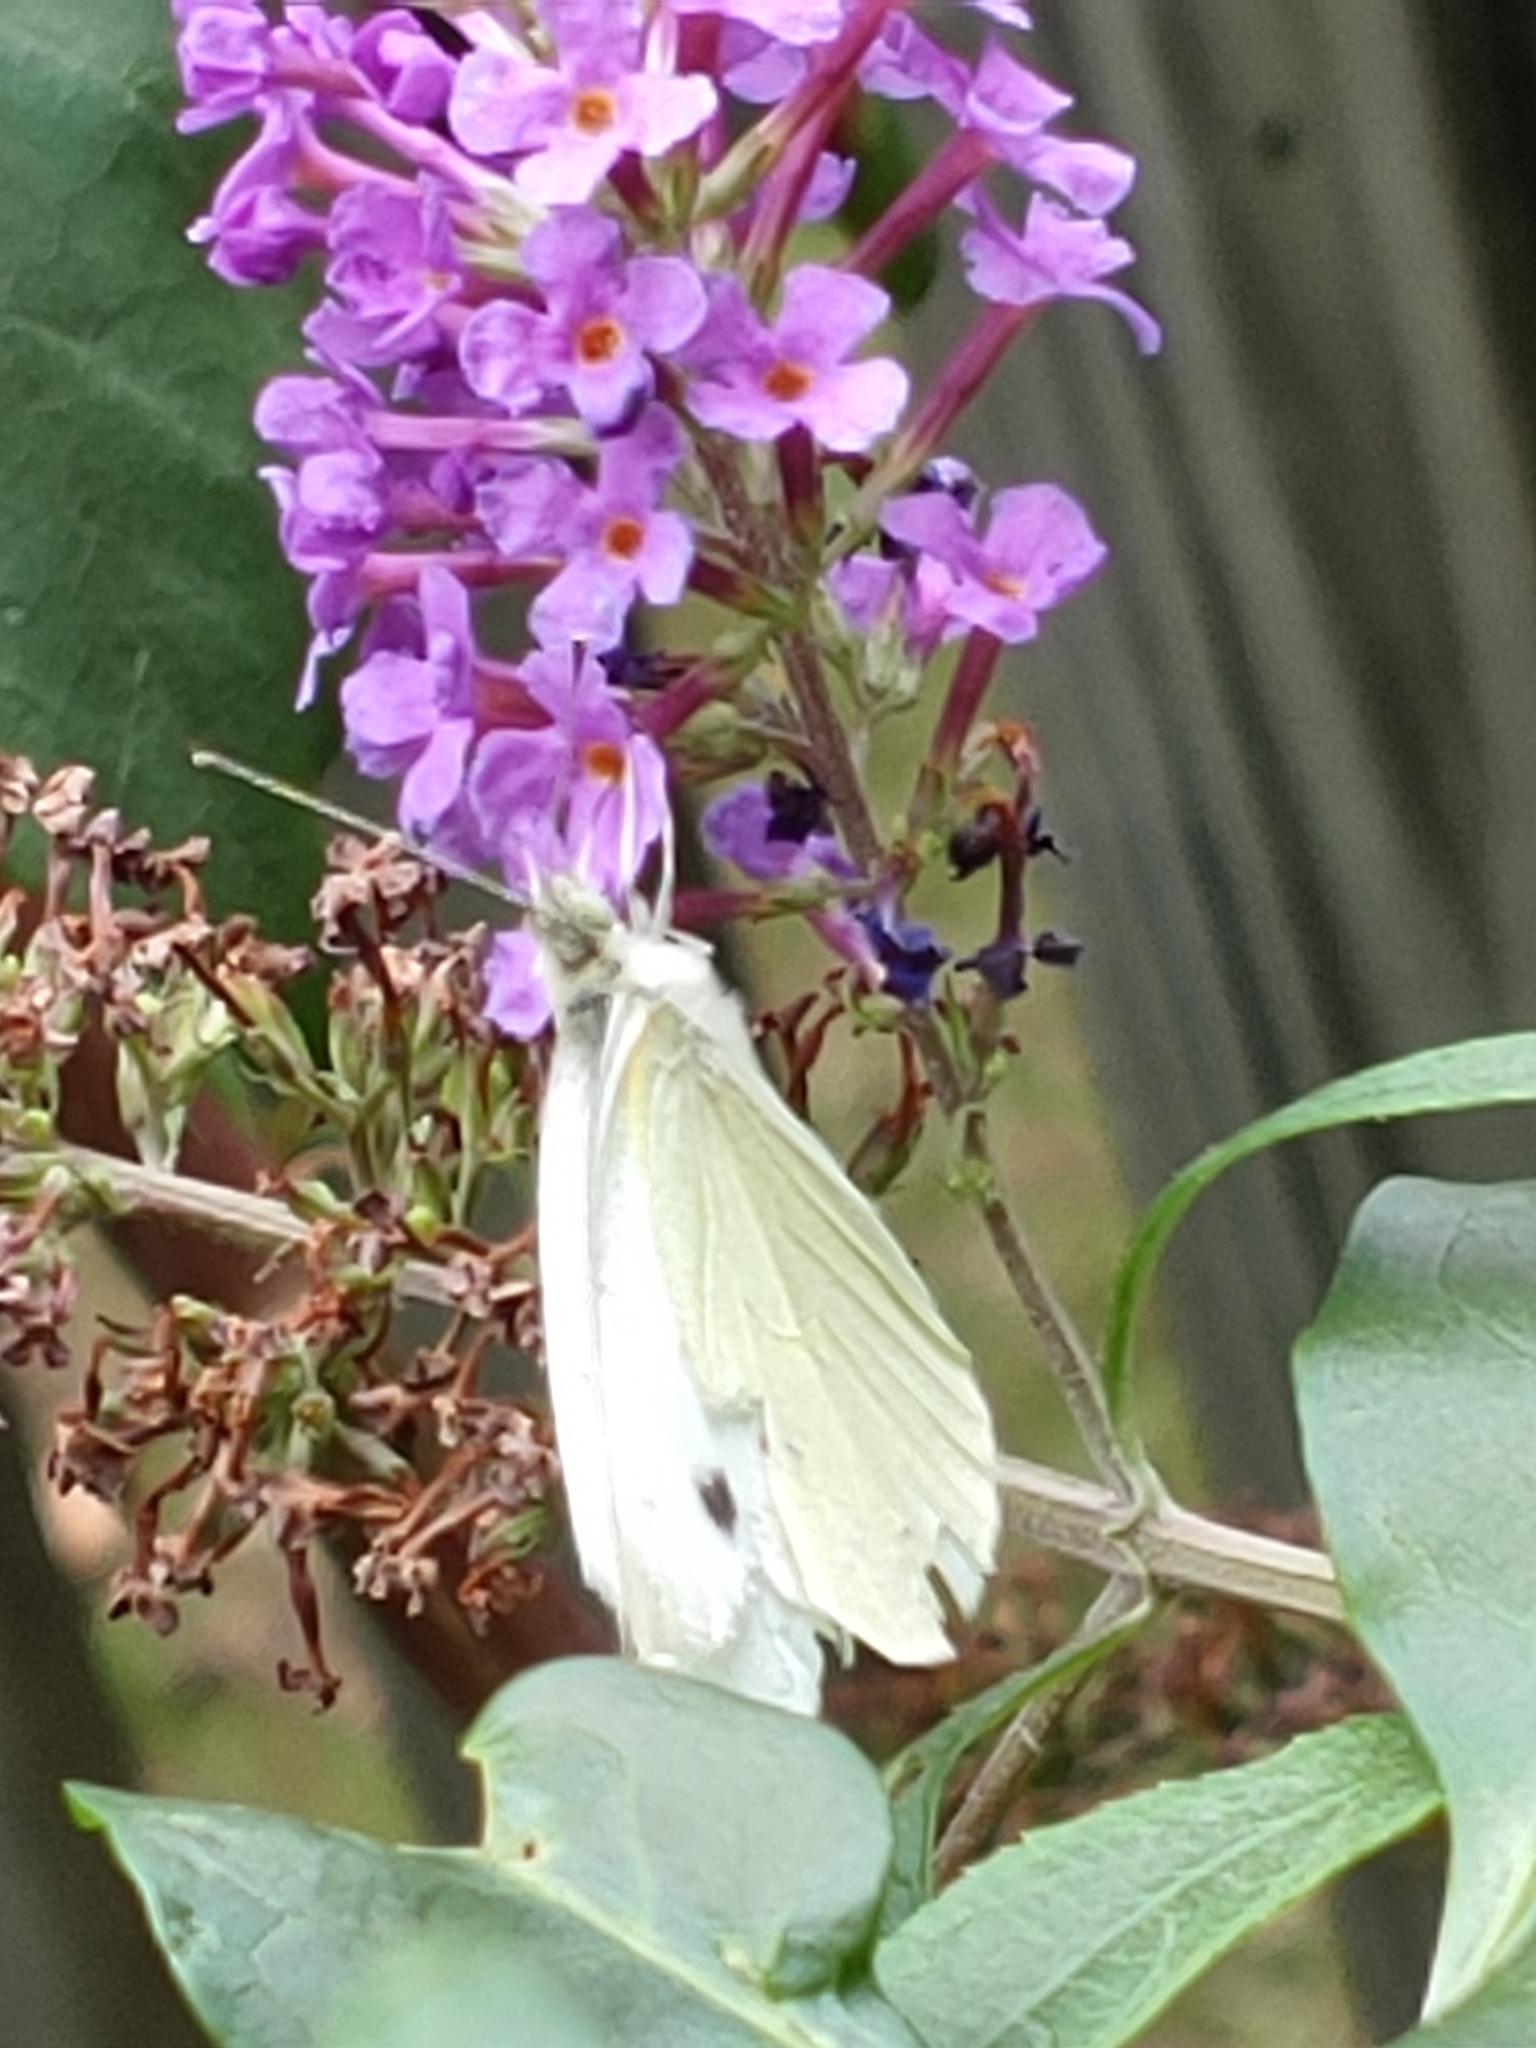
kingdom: Animalia
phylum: Arthropoda
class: Insecta
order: Lepidoptera
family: Pieridae
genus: Pieris
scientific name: Pieris rapae
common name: Small white
